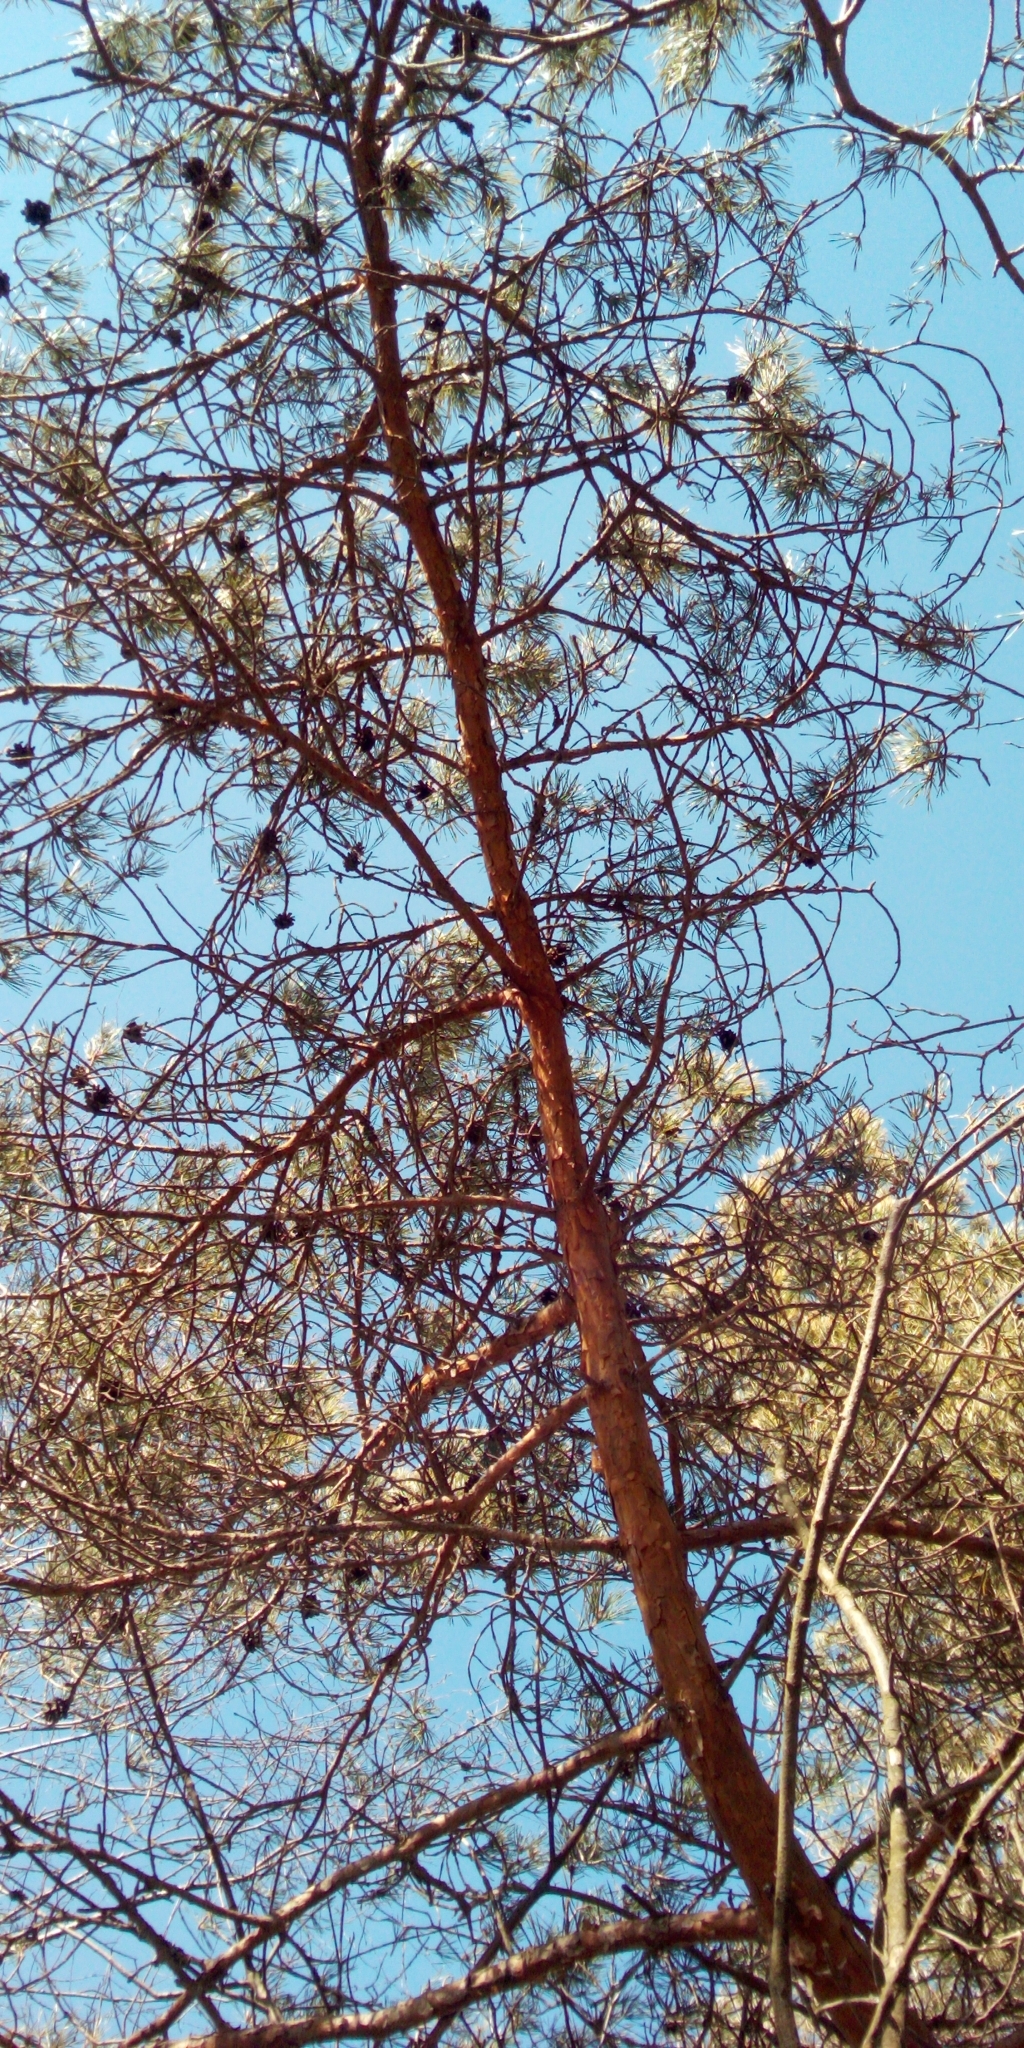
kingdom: Plantae
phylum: Tracheophyta
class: Pinopsida
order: Pinales
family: Pinaceae
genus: Pinus
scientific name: Pinus sylvestris
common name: Scots pine
